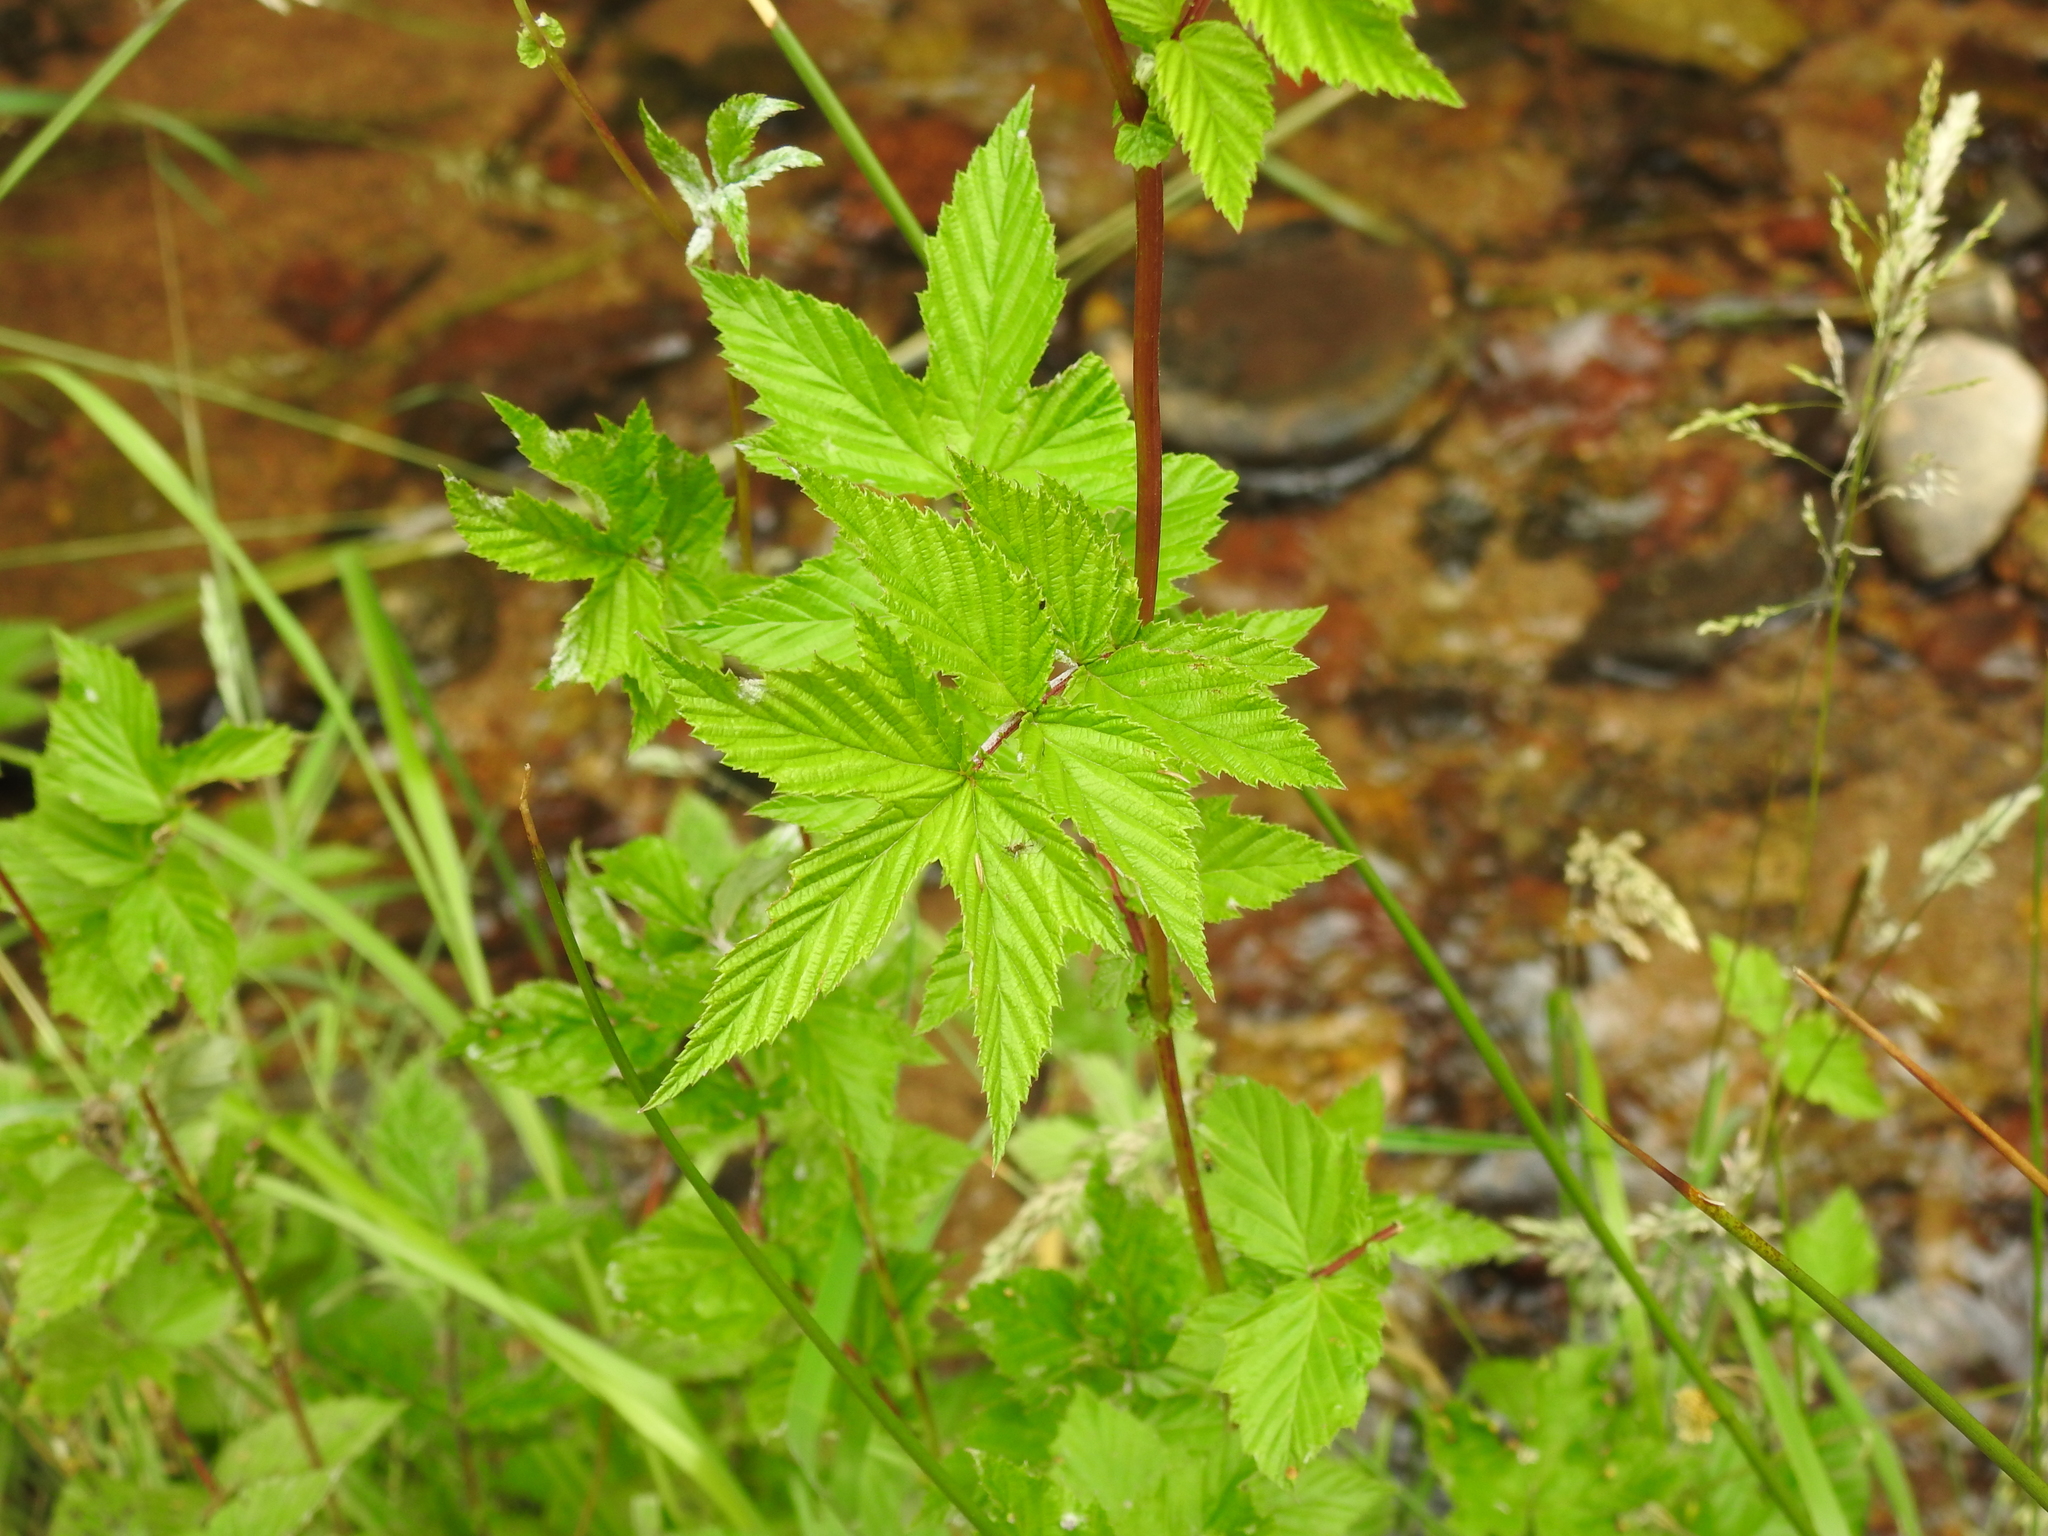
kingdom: Plantae
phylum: Tracheophyta
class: Magnoliopsida
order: Rosales
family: Rosaceae
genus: Filipendula
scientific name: Filipendula ulmaria
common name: Meadowsweet
